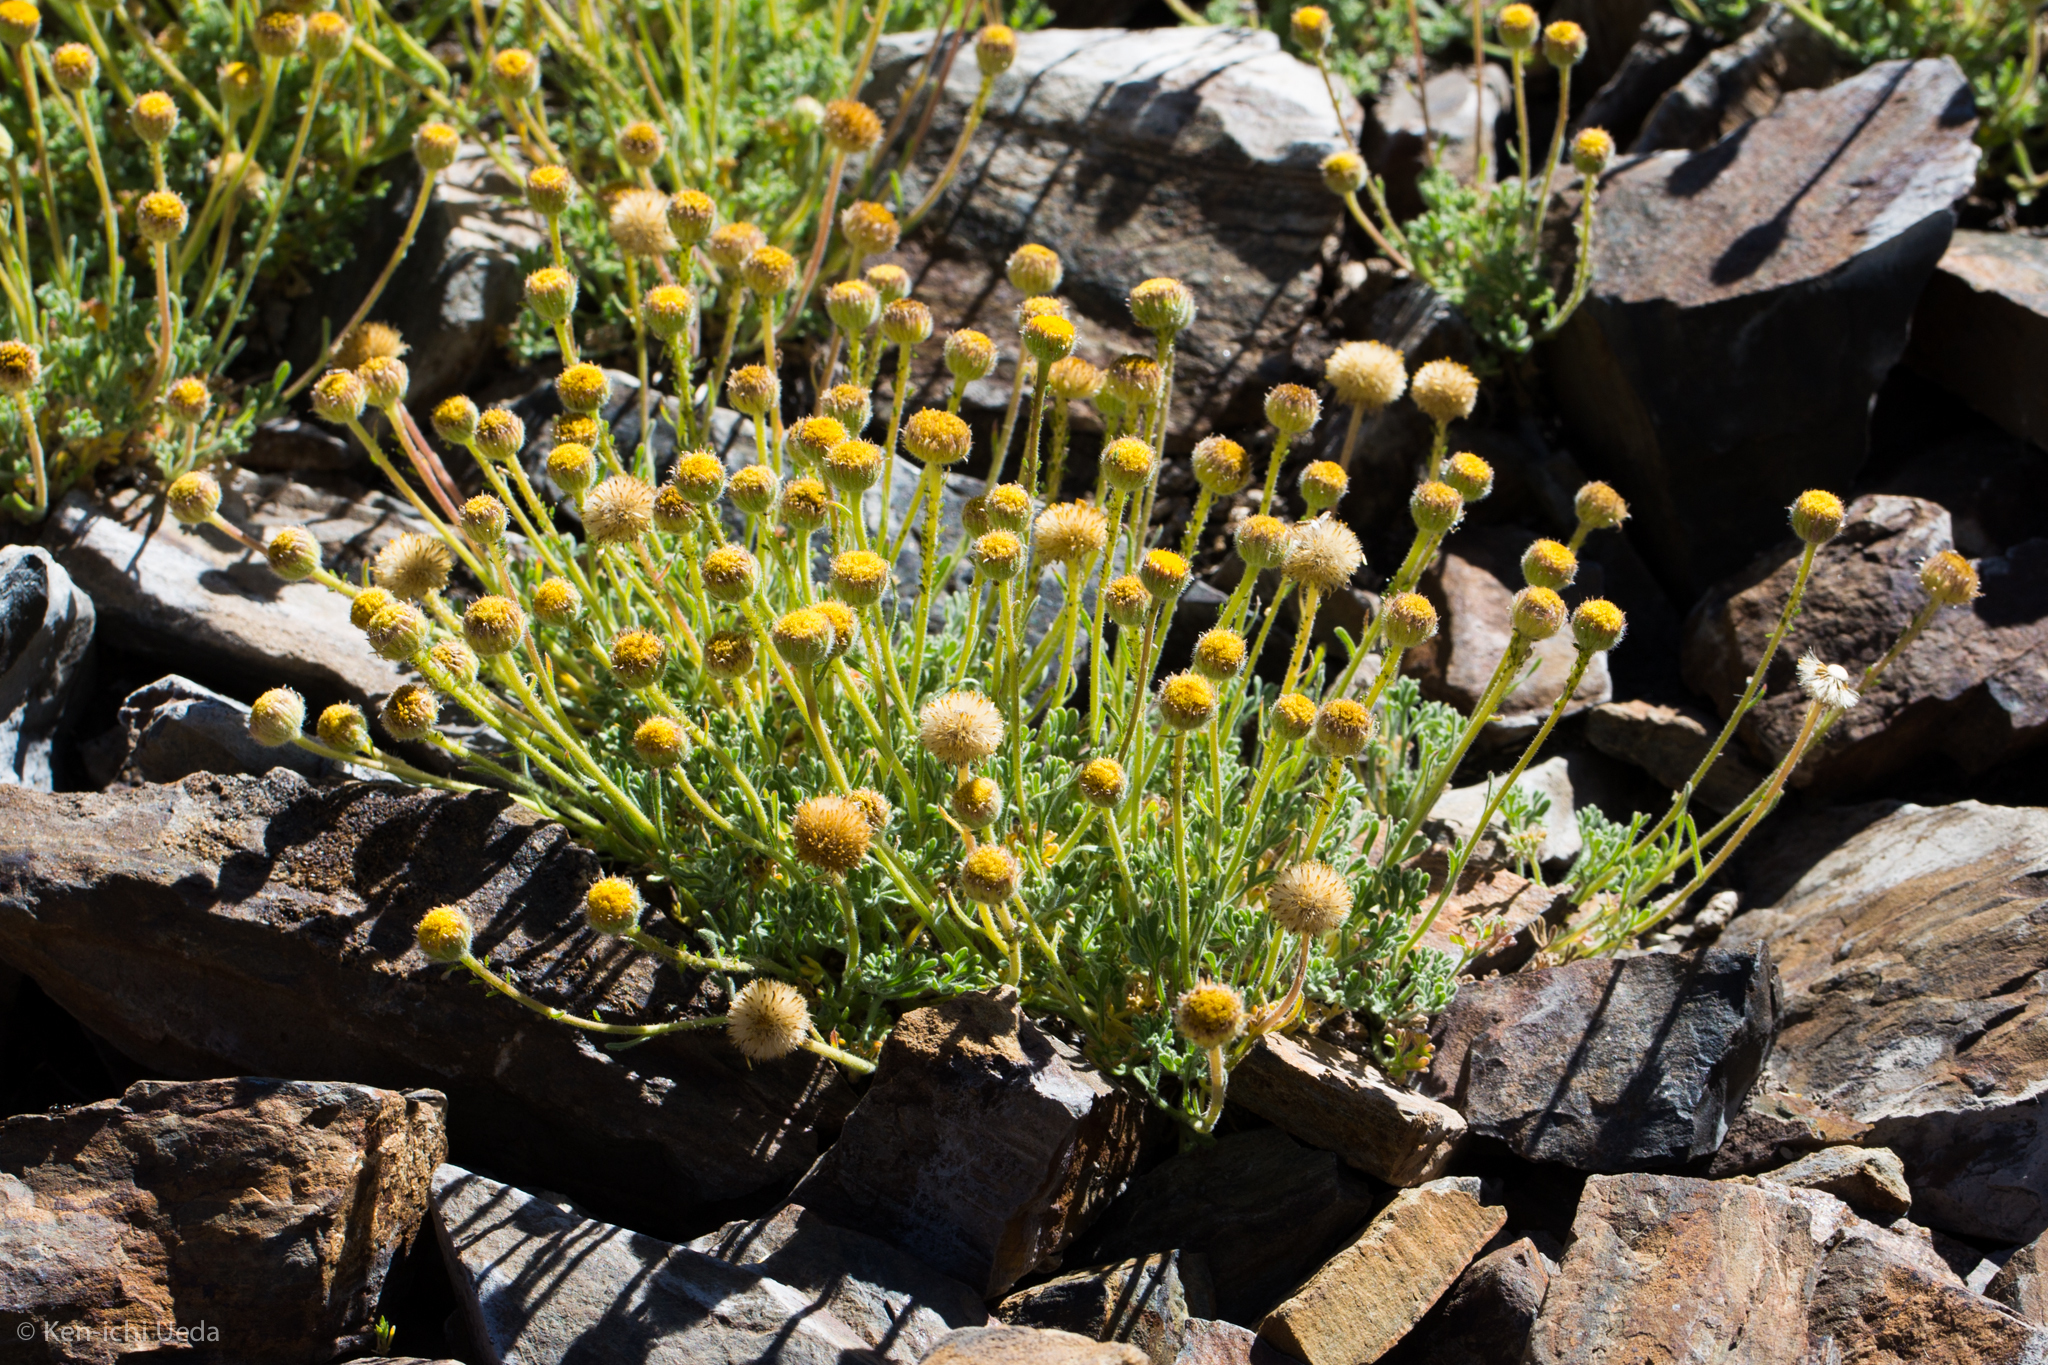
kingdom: Plantae
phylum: Tracheophyta
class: Magnoliopsida
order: Asterales
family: Asteraceae
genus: Erigeron
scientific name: Erigeron compositus
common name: Dwarf mountain fleabane
